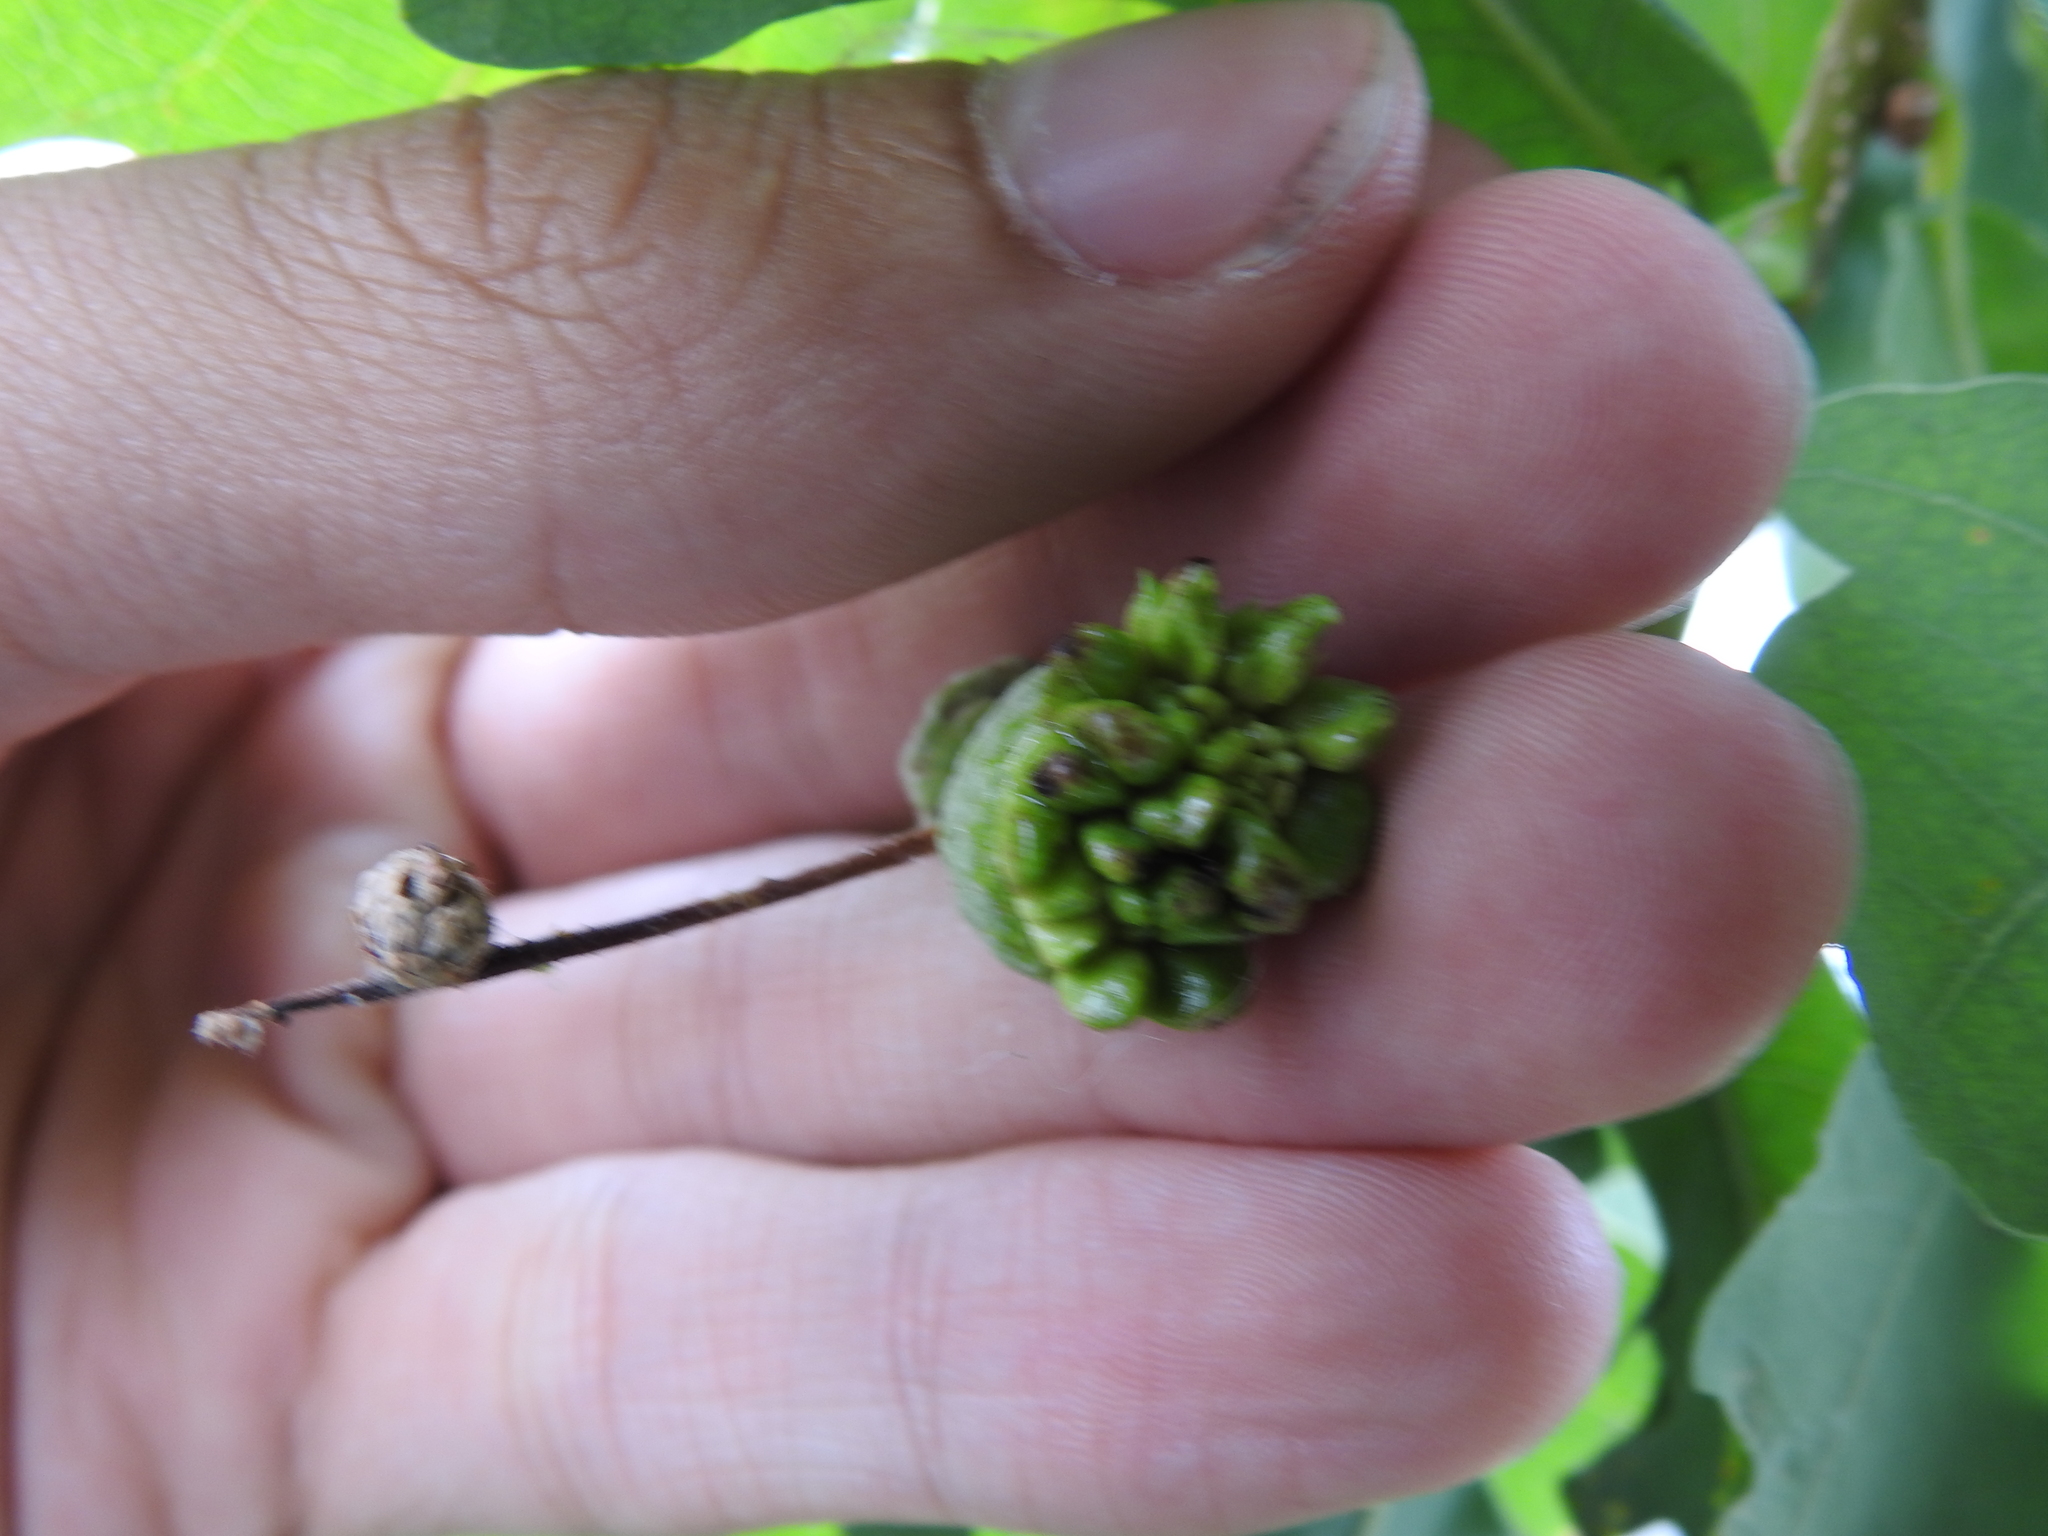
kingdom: Animalia
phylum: Arthropoda
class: Insecta
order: Hymenoptera
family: Cynipidae
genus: Andricus
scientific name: Andricus quercuscalicis
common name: Knopper gall
